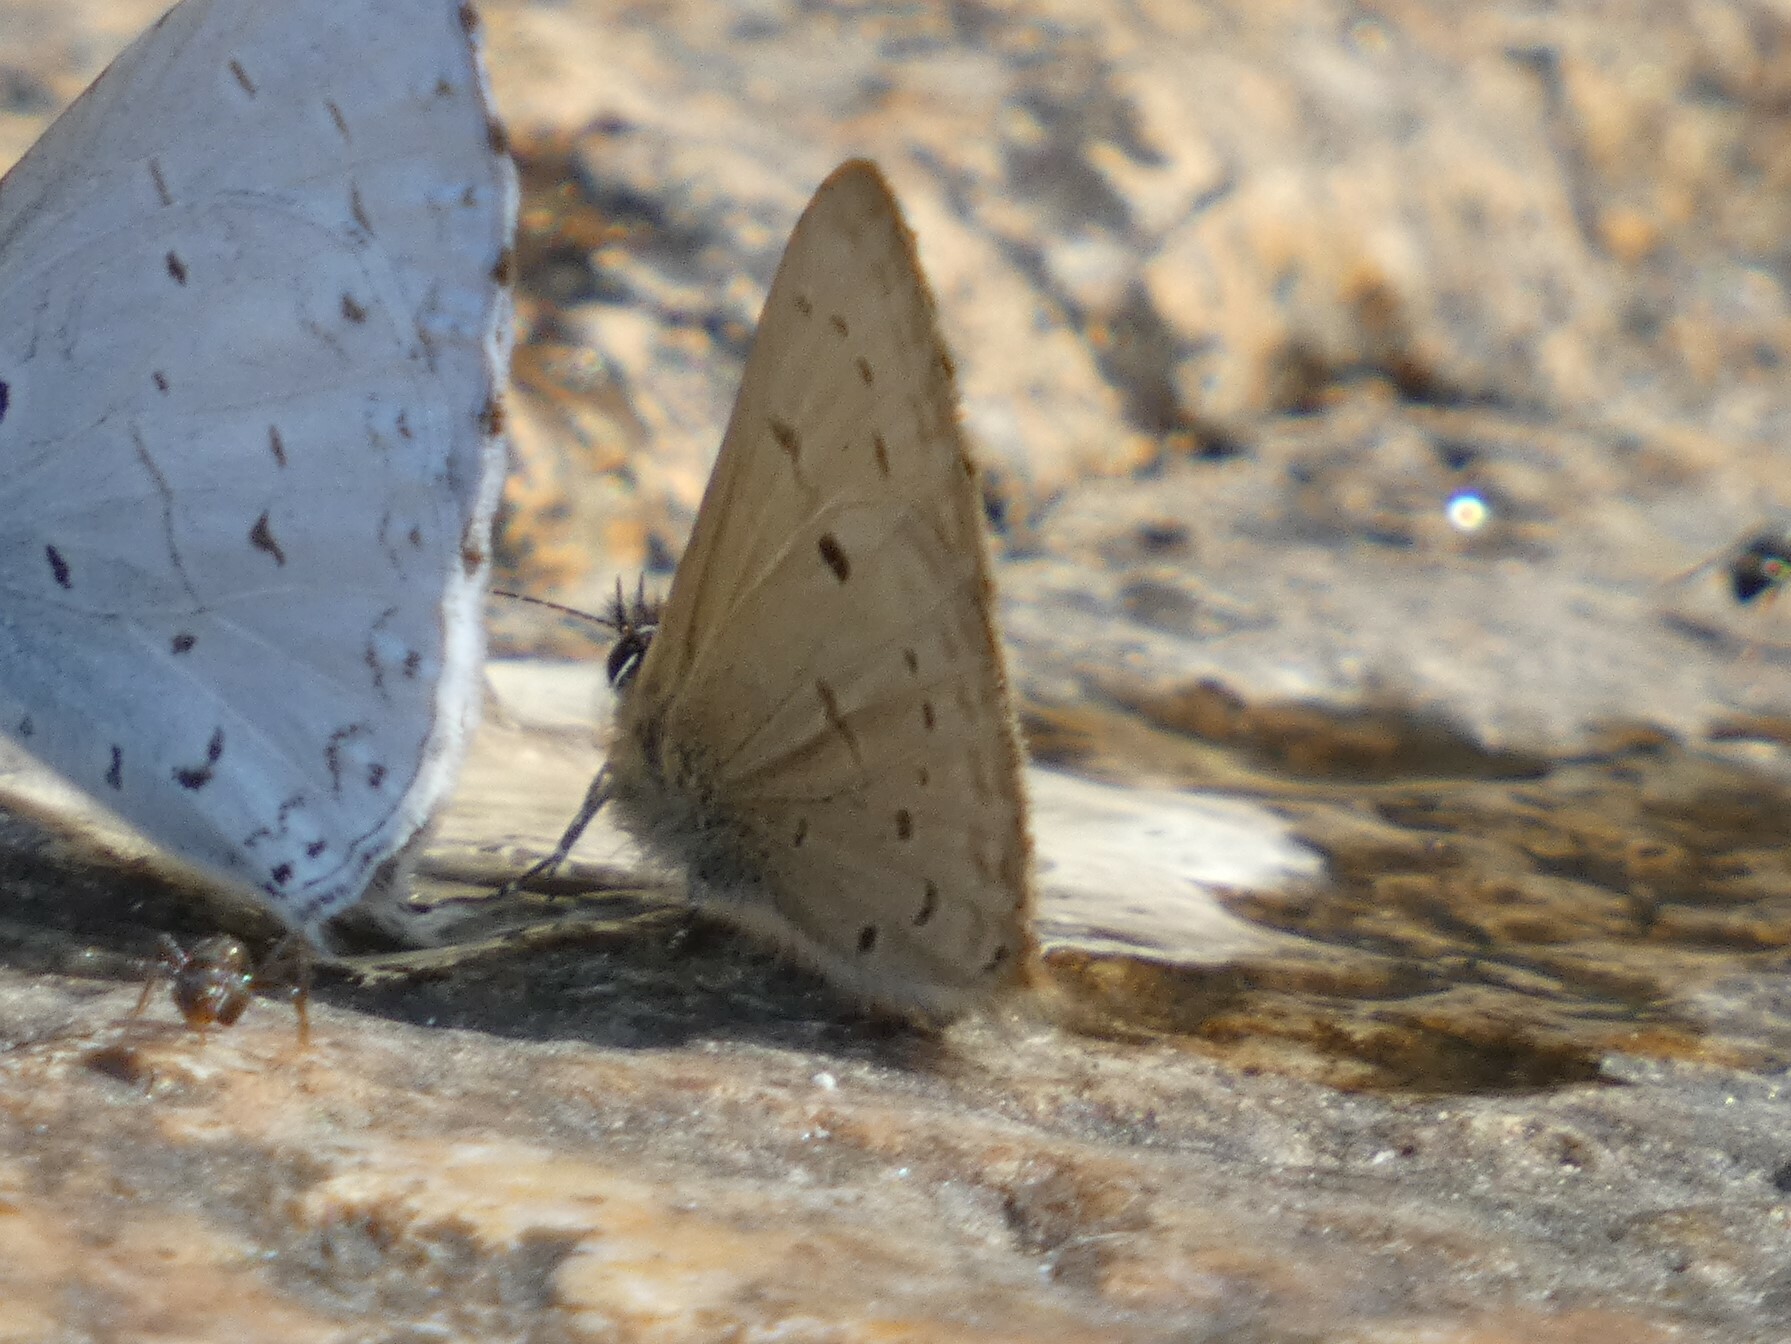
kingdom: Animalia
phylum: Arthropoda
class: Insecta
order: Lepidoptera
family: Lycaenidae
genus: Una
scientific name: Una usta
